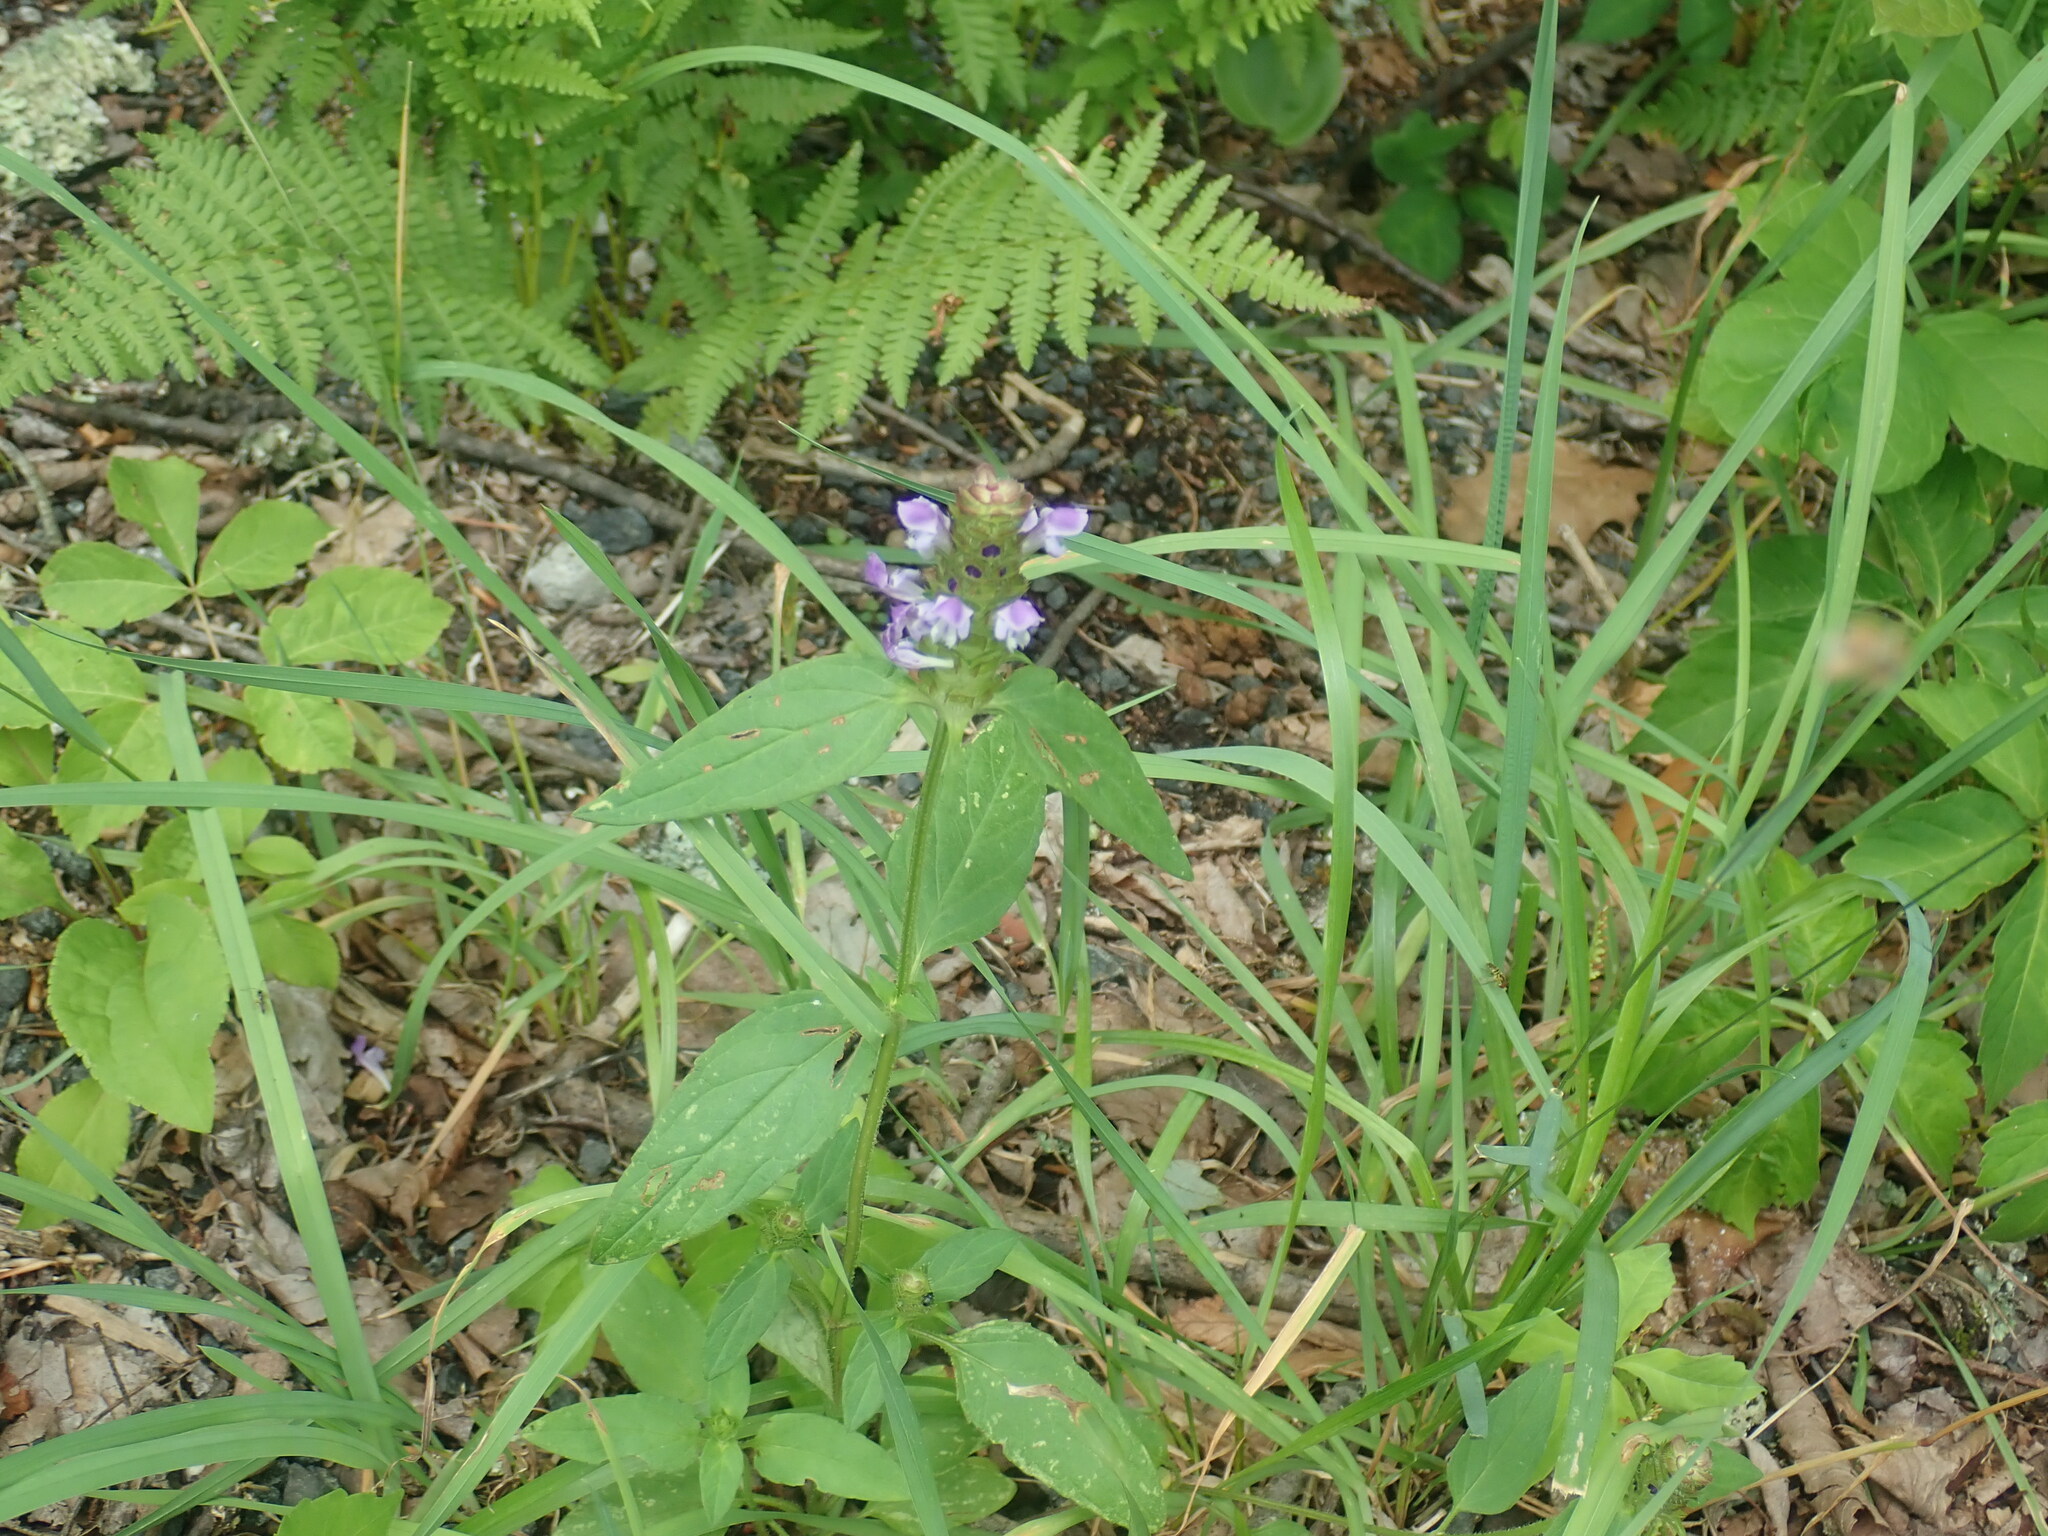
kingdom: Plantae
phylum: Tracheophyta
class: Magnoliopsida
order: Lamiales
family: Lamiaceae
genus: Prunella
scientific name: Prunella vulgaris
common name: Heal-all
